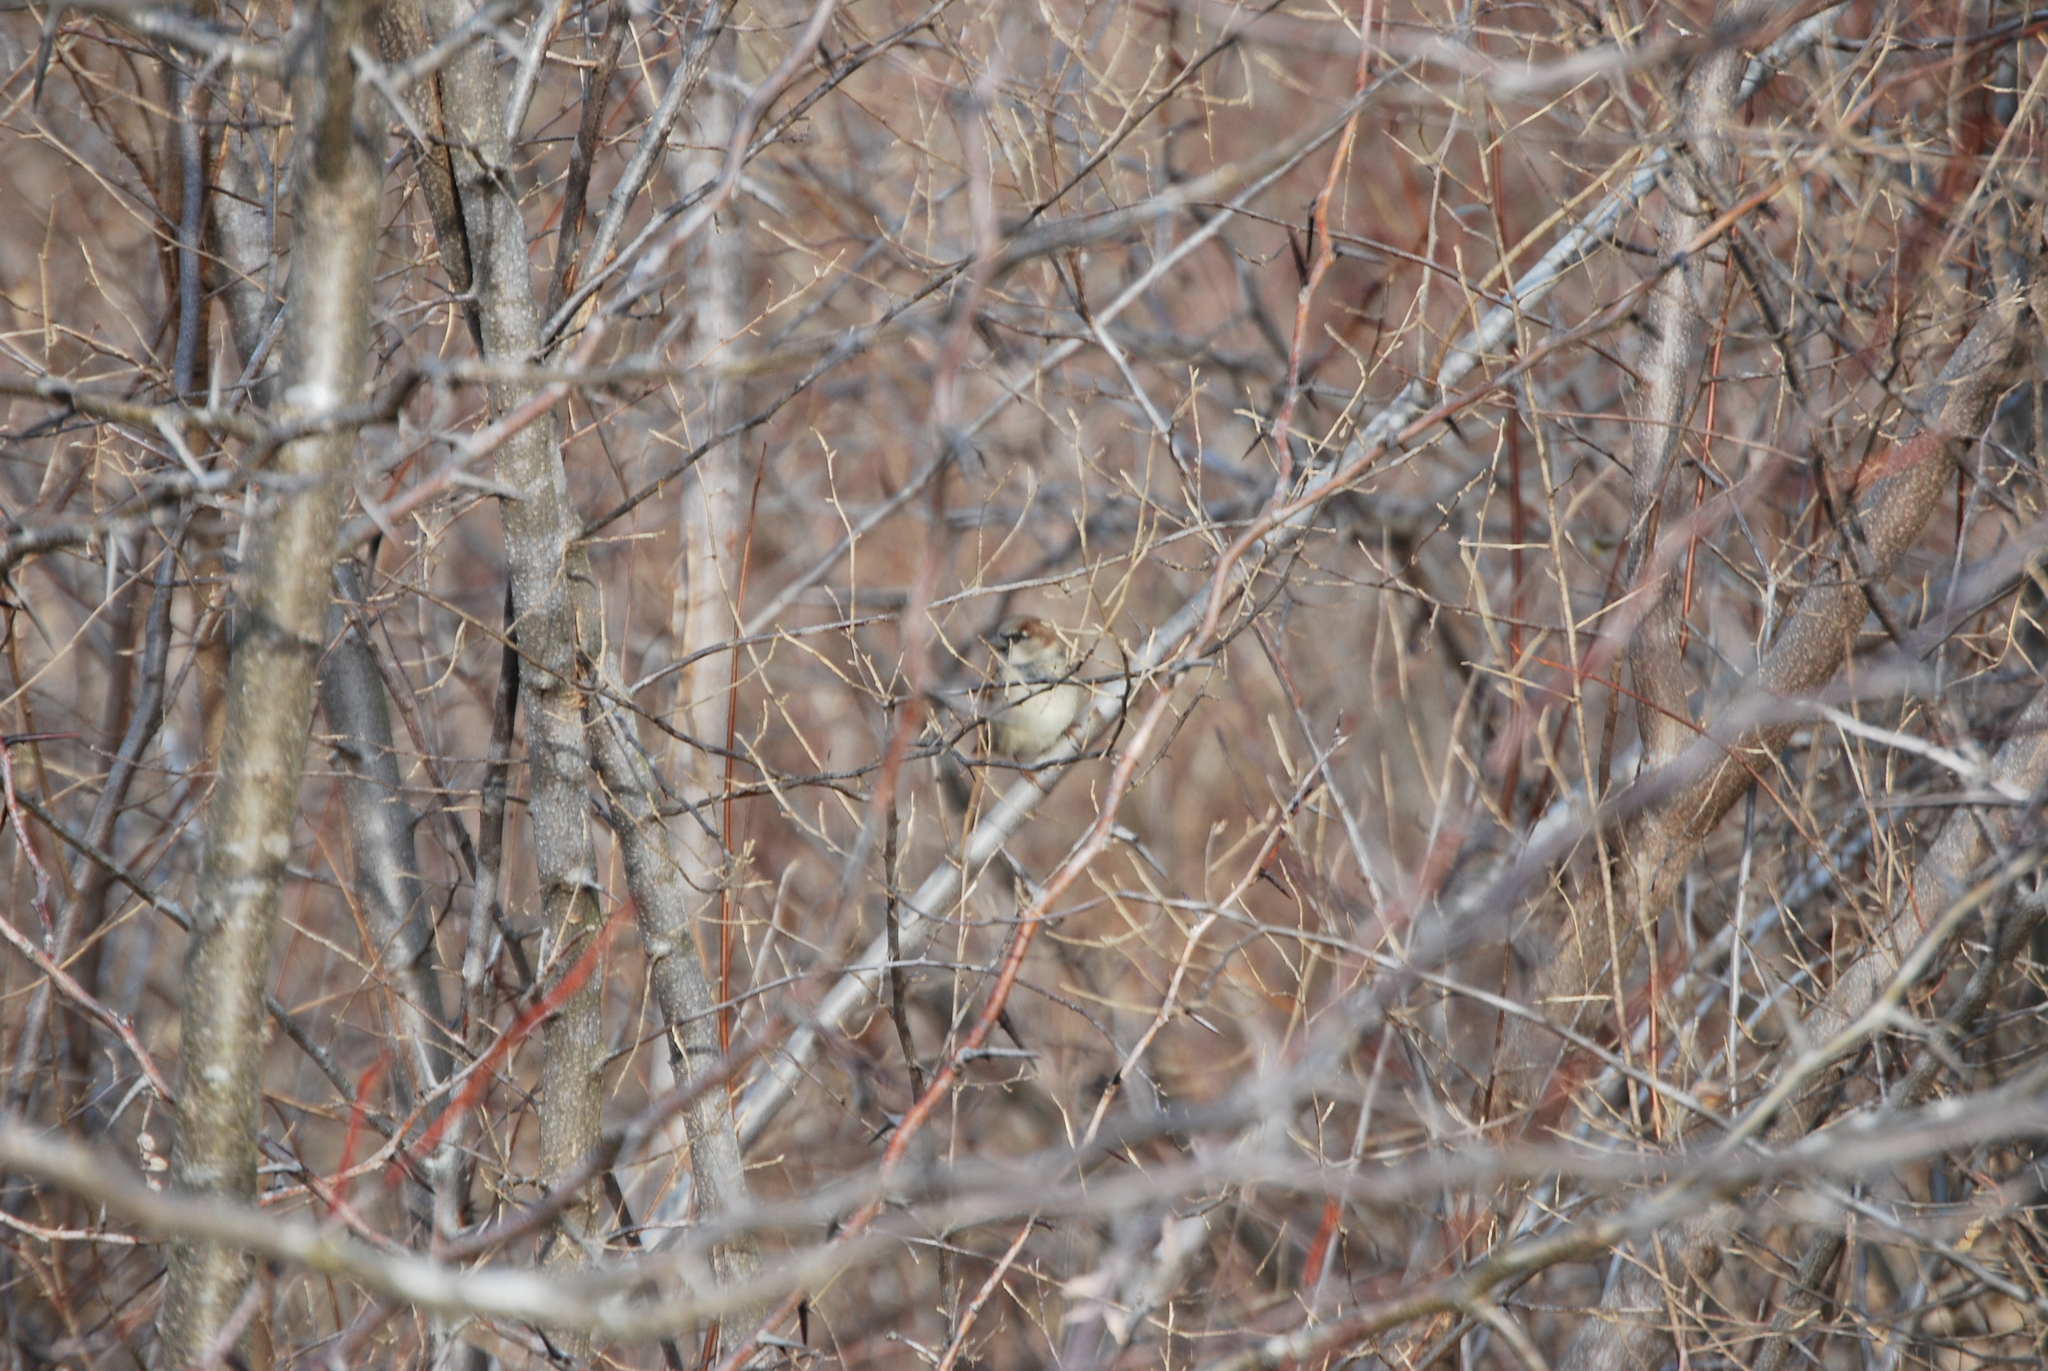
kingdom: Animalia
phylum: Chordata
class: Aves
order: Passeriformes
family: Passeridae
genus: Passer
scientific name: Passer domesticus
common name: House sparrow
